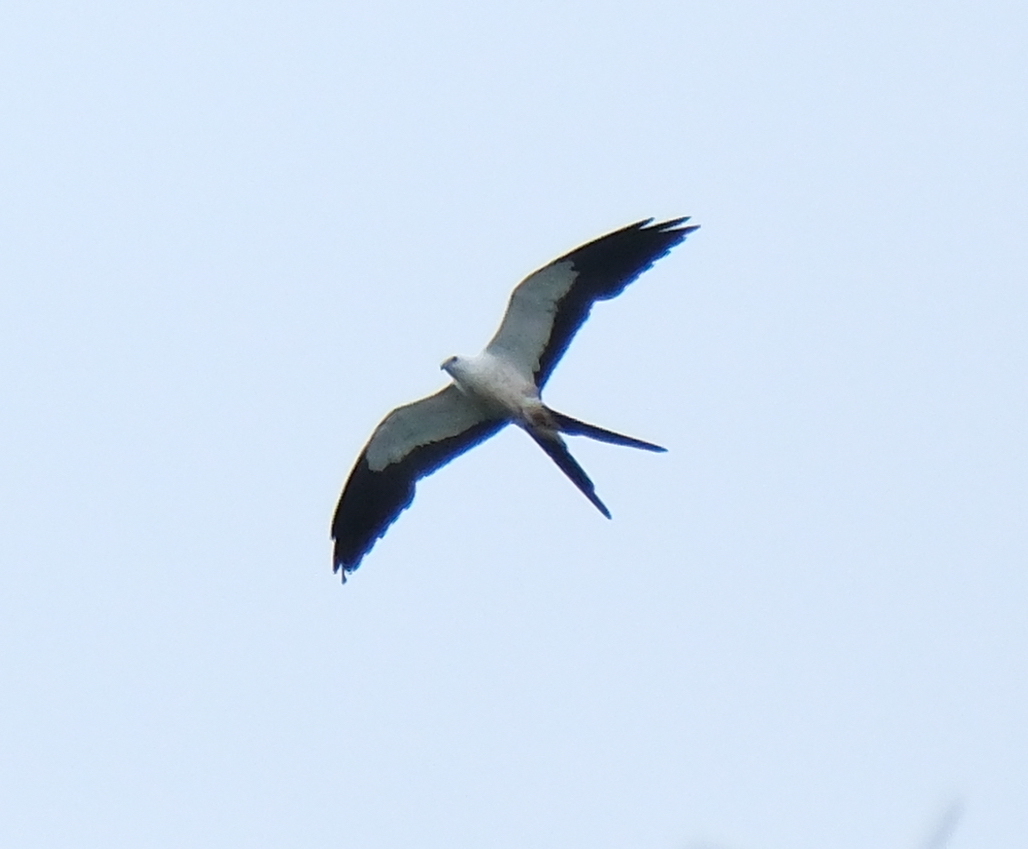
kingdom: Animalia
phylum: Chordata
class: Aves
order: Accipitriformes
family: Accipitridae
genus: Elanoides
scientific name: Elanoides forficatus
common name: Swallow-tailed kite
